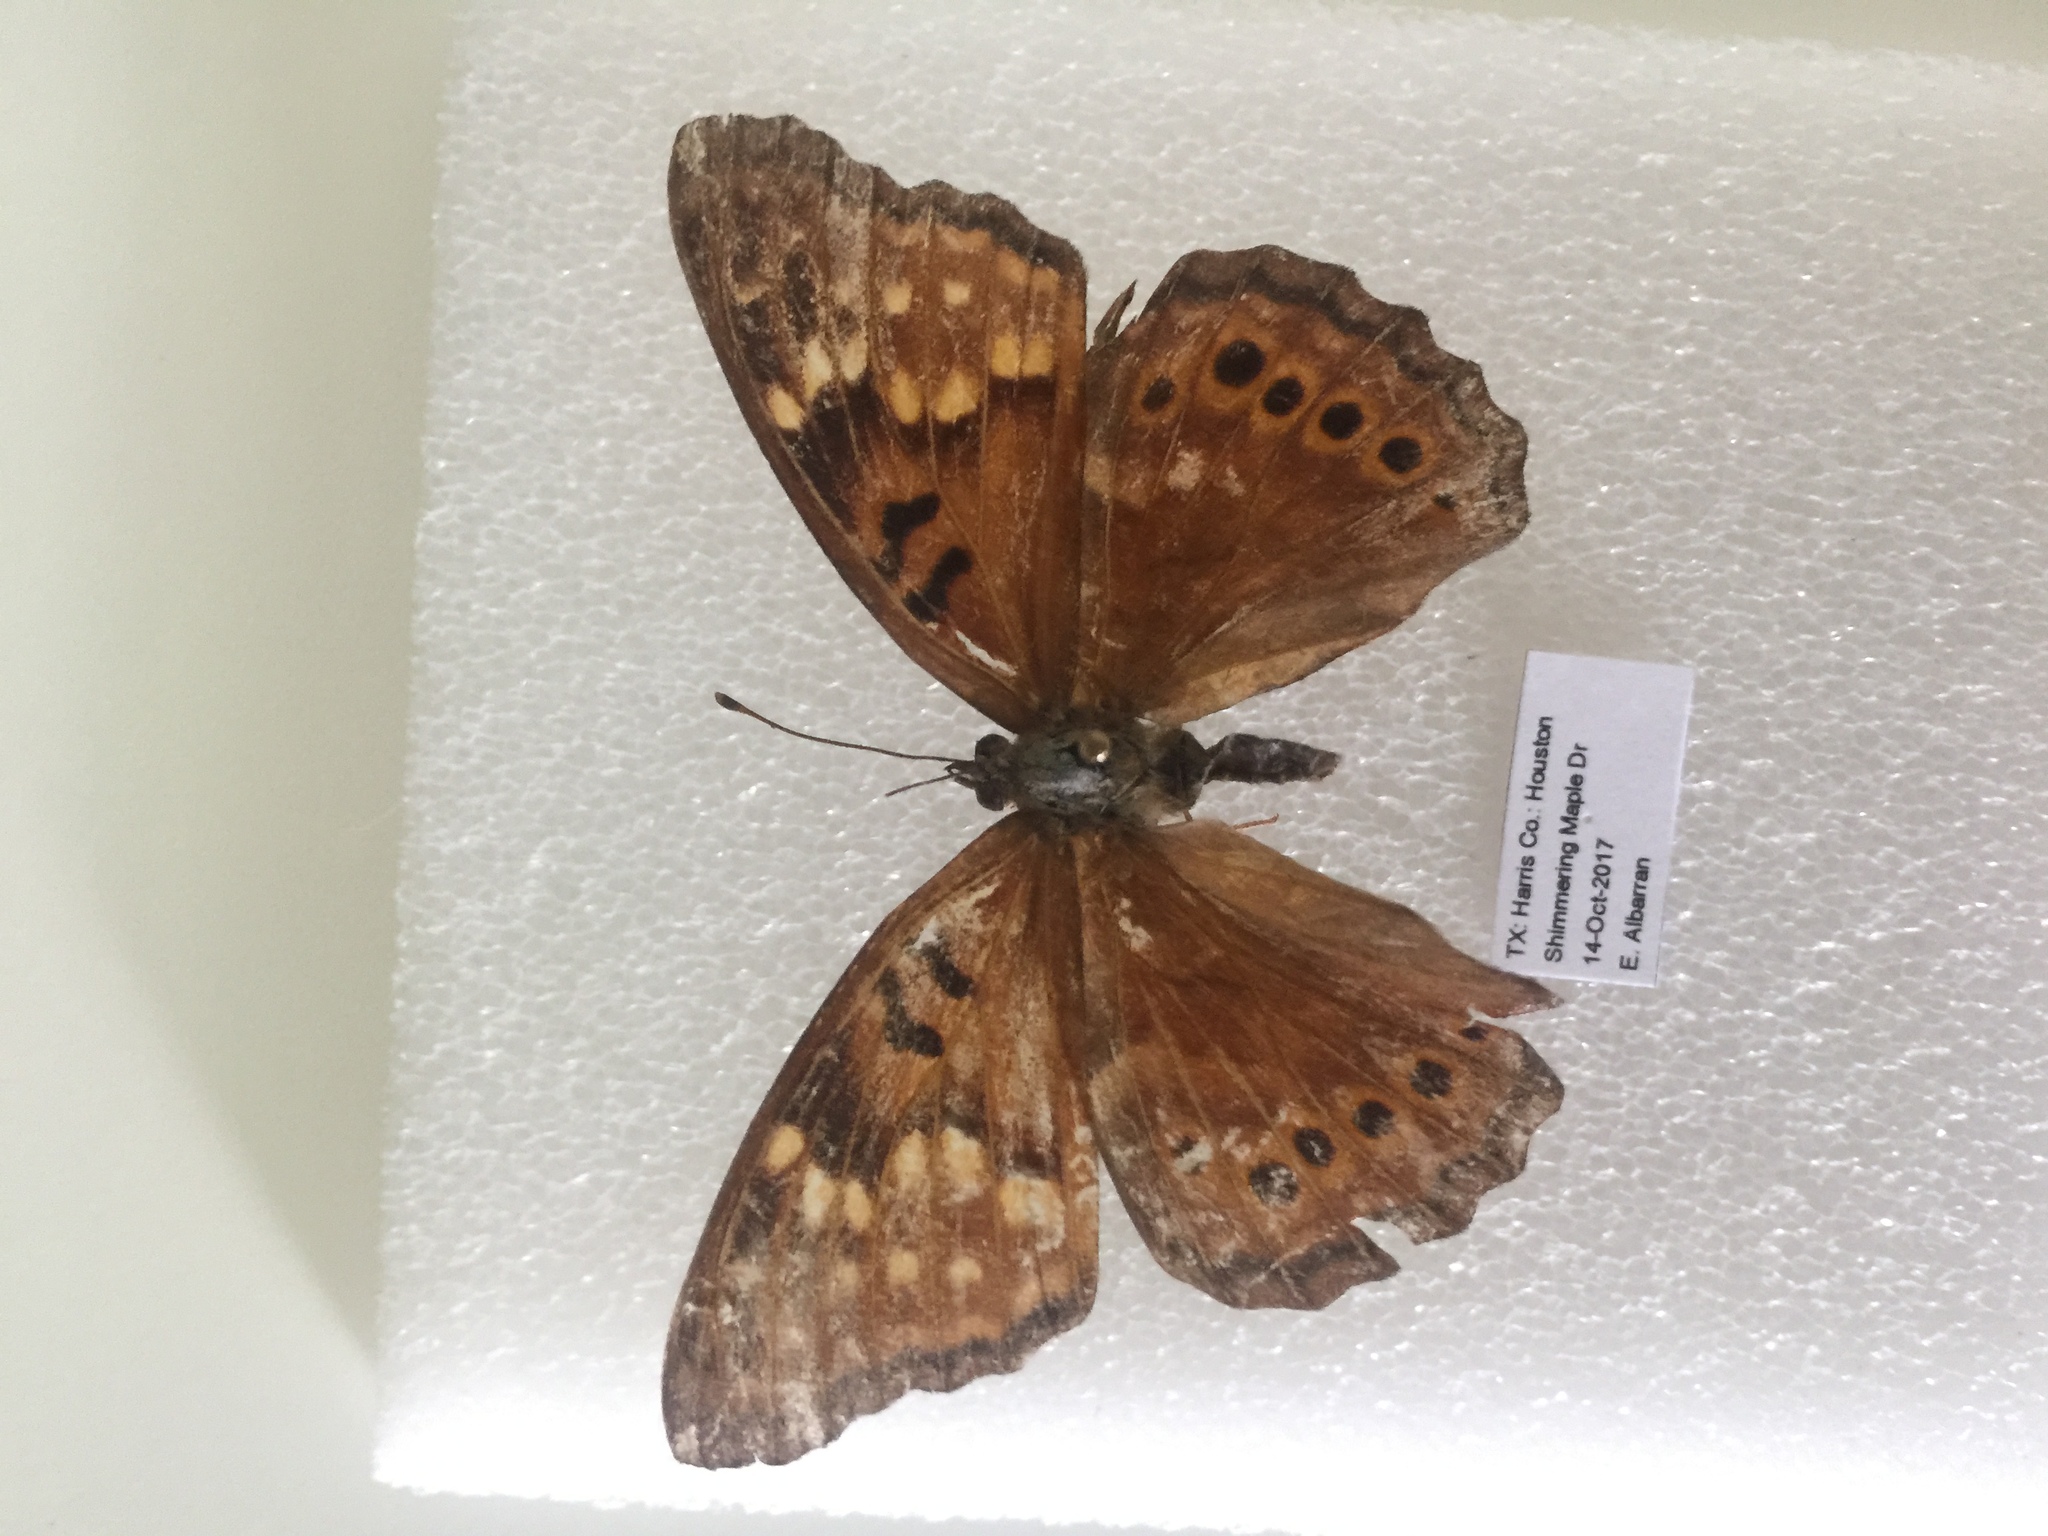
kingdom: Animalia
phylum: Arthropoda
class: Insecta
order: Lepidoptera
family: Nymphalidae
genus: Asterocampa
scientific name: Asterocampa clyton
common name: Tawny emperor
